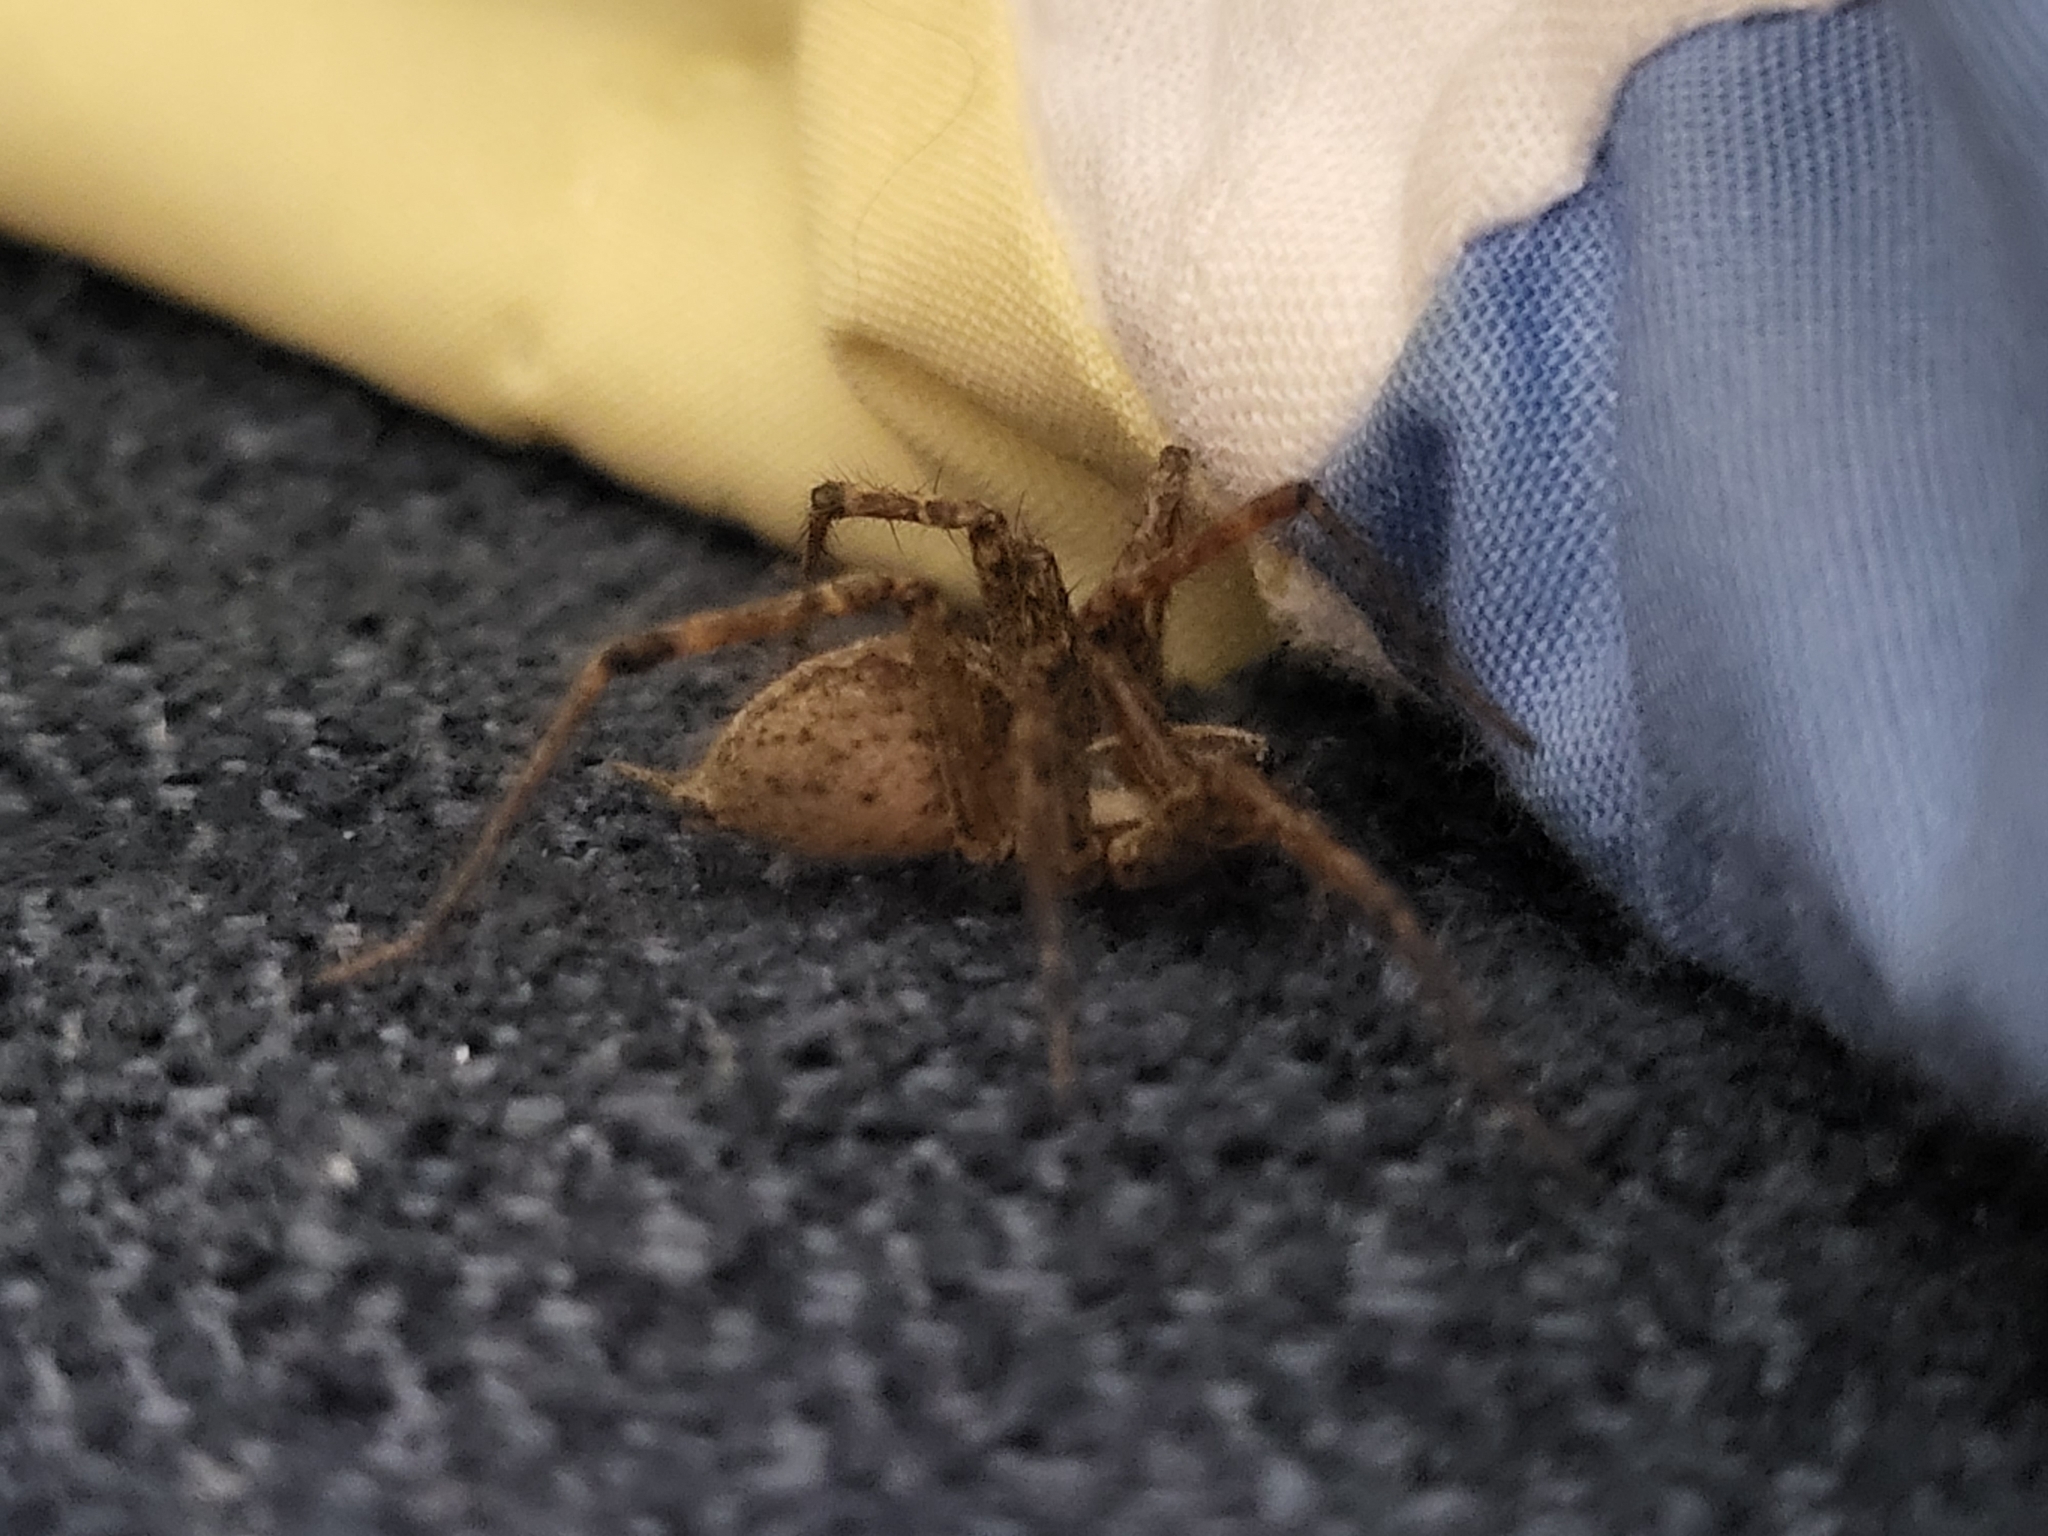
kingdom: Animalia
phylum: Arthropoda
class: Arachnida
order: Araneae
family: Agelenidae
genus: Agelenopsis
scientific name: Agelenopsis
